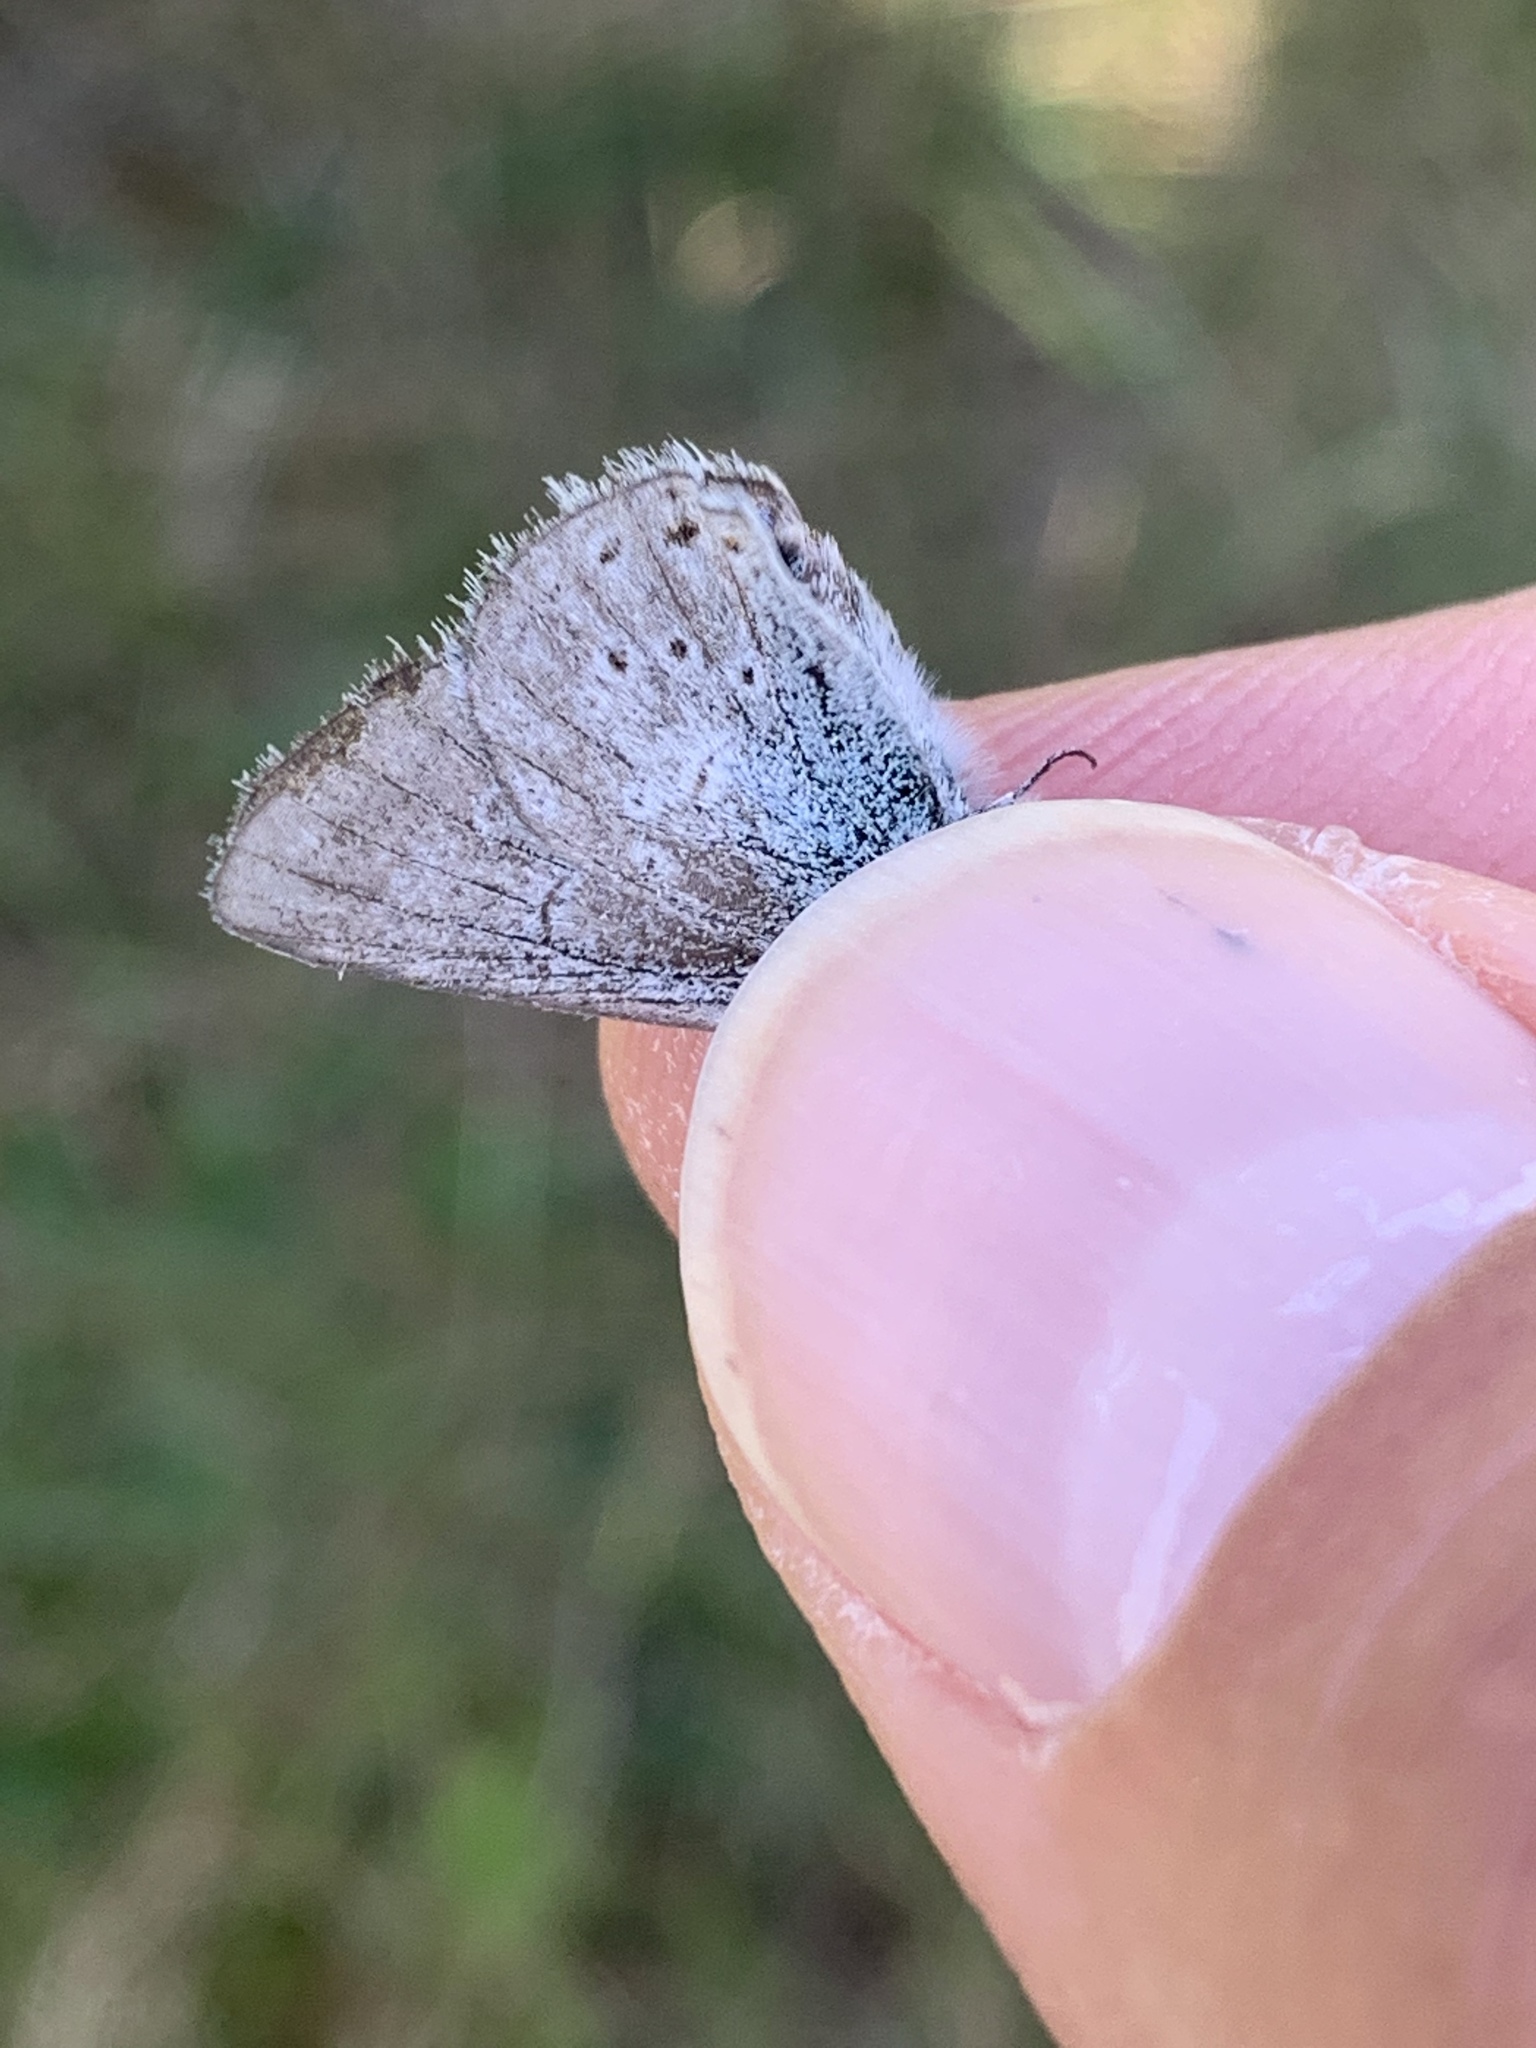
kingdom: Animalia
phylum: Arthropoda
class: Insecta
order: Lepidoptera
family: Lycaenidae
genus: Icaricia
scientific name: Icaricia saepiolus
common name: Greenish blue
